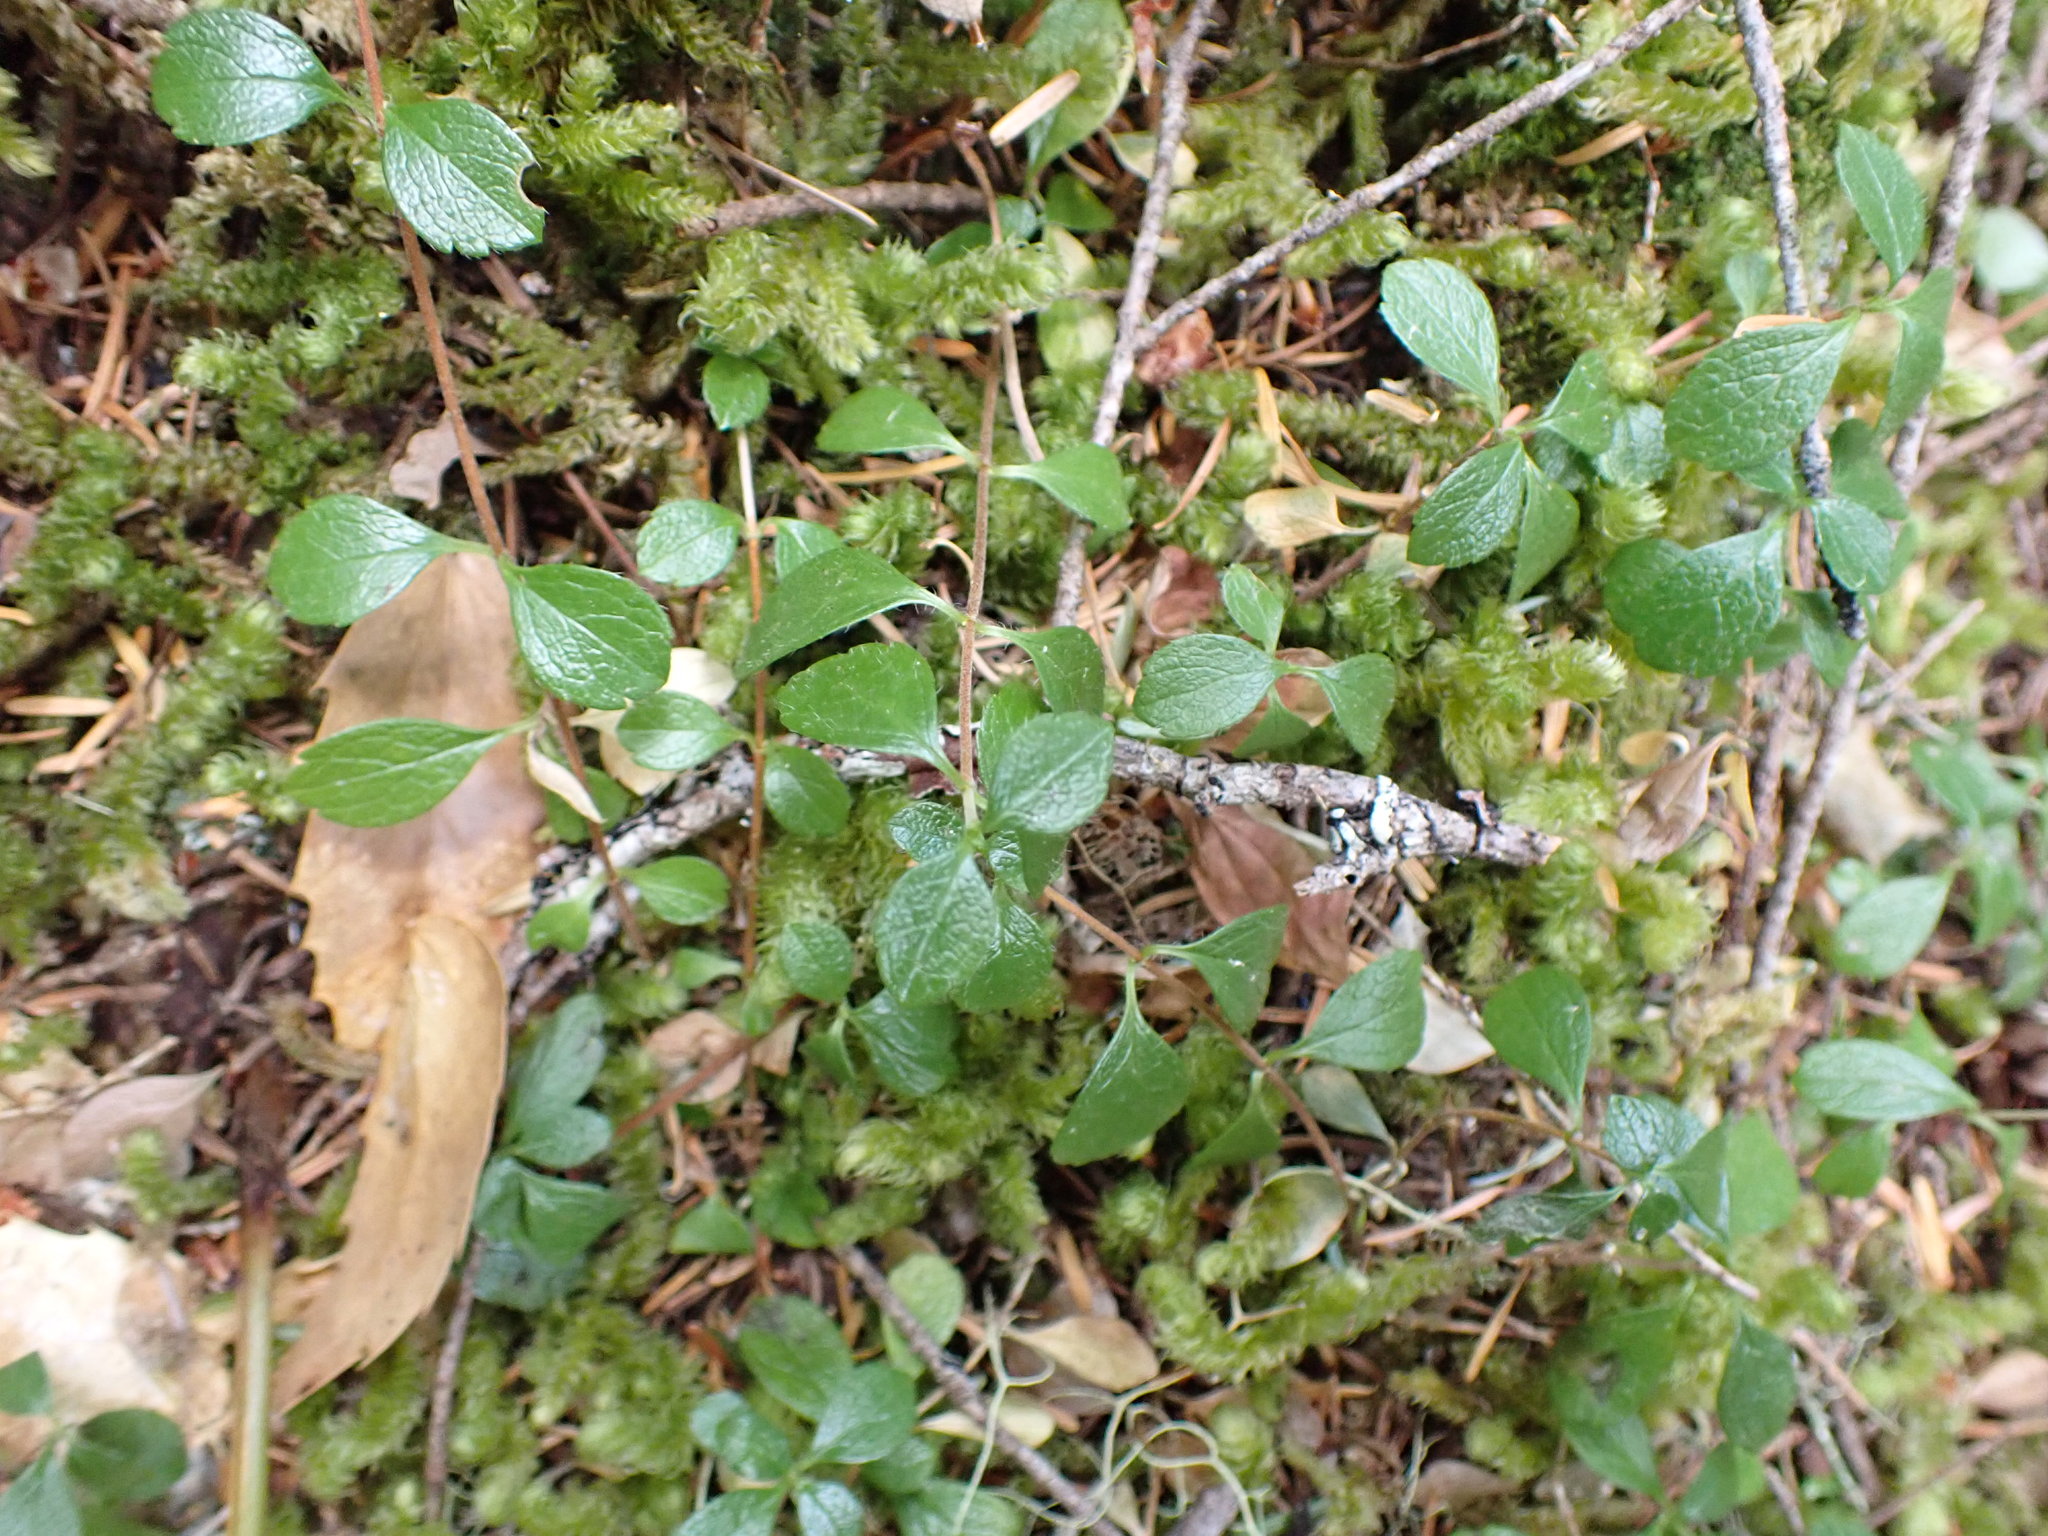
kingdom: Plantae
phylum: Tracheophyta
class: Magnoliopsida
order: Dipsacales
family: Caprifoliaceae
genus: Linnaea
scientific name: Linnaea borealis
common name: Twinflower
